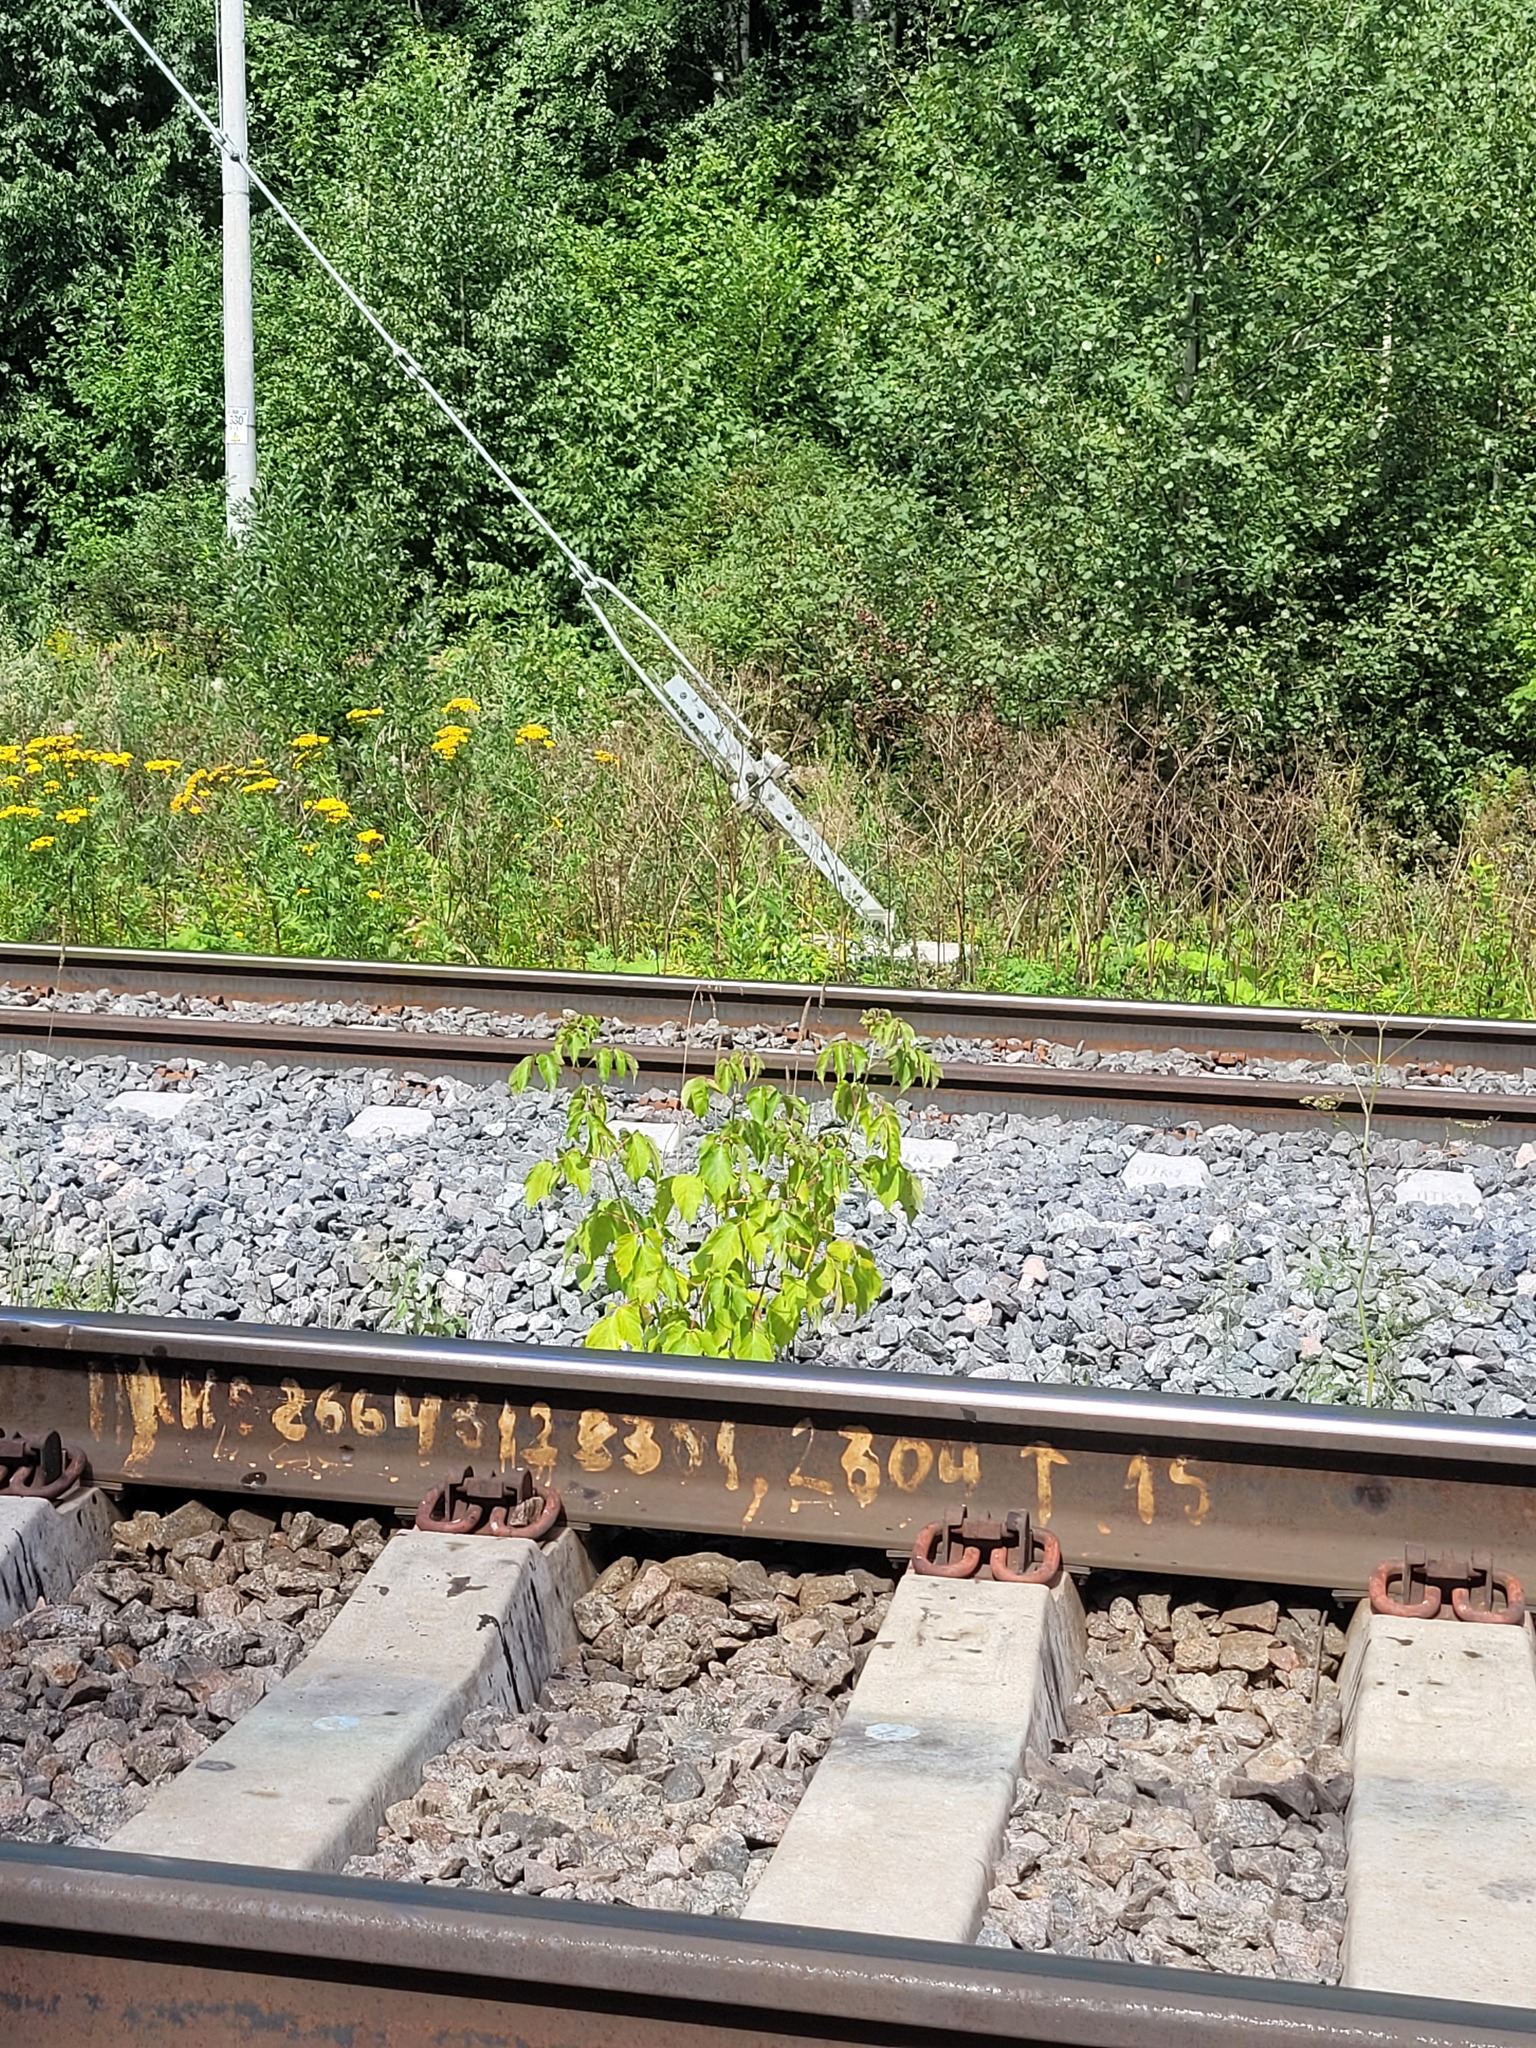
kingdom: Plantae
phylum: Tracheophyta
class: Magnoliopsida
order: Sapindales
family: Sapindaceae
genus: Acer
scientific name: Acer negundo
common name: Ashleaf maple
